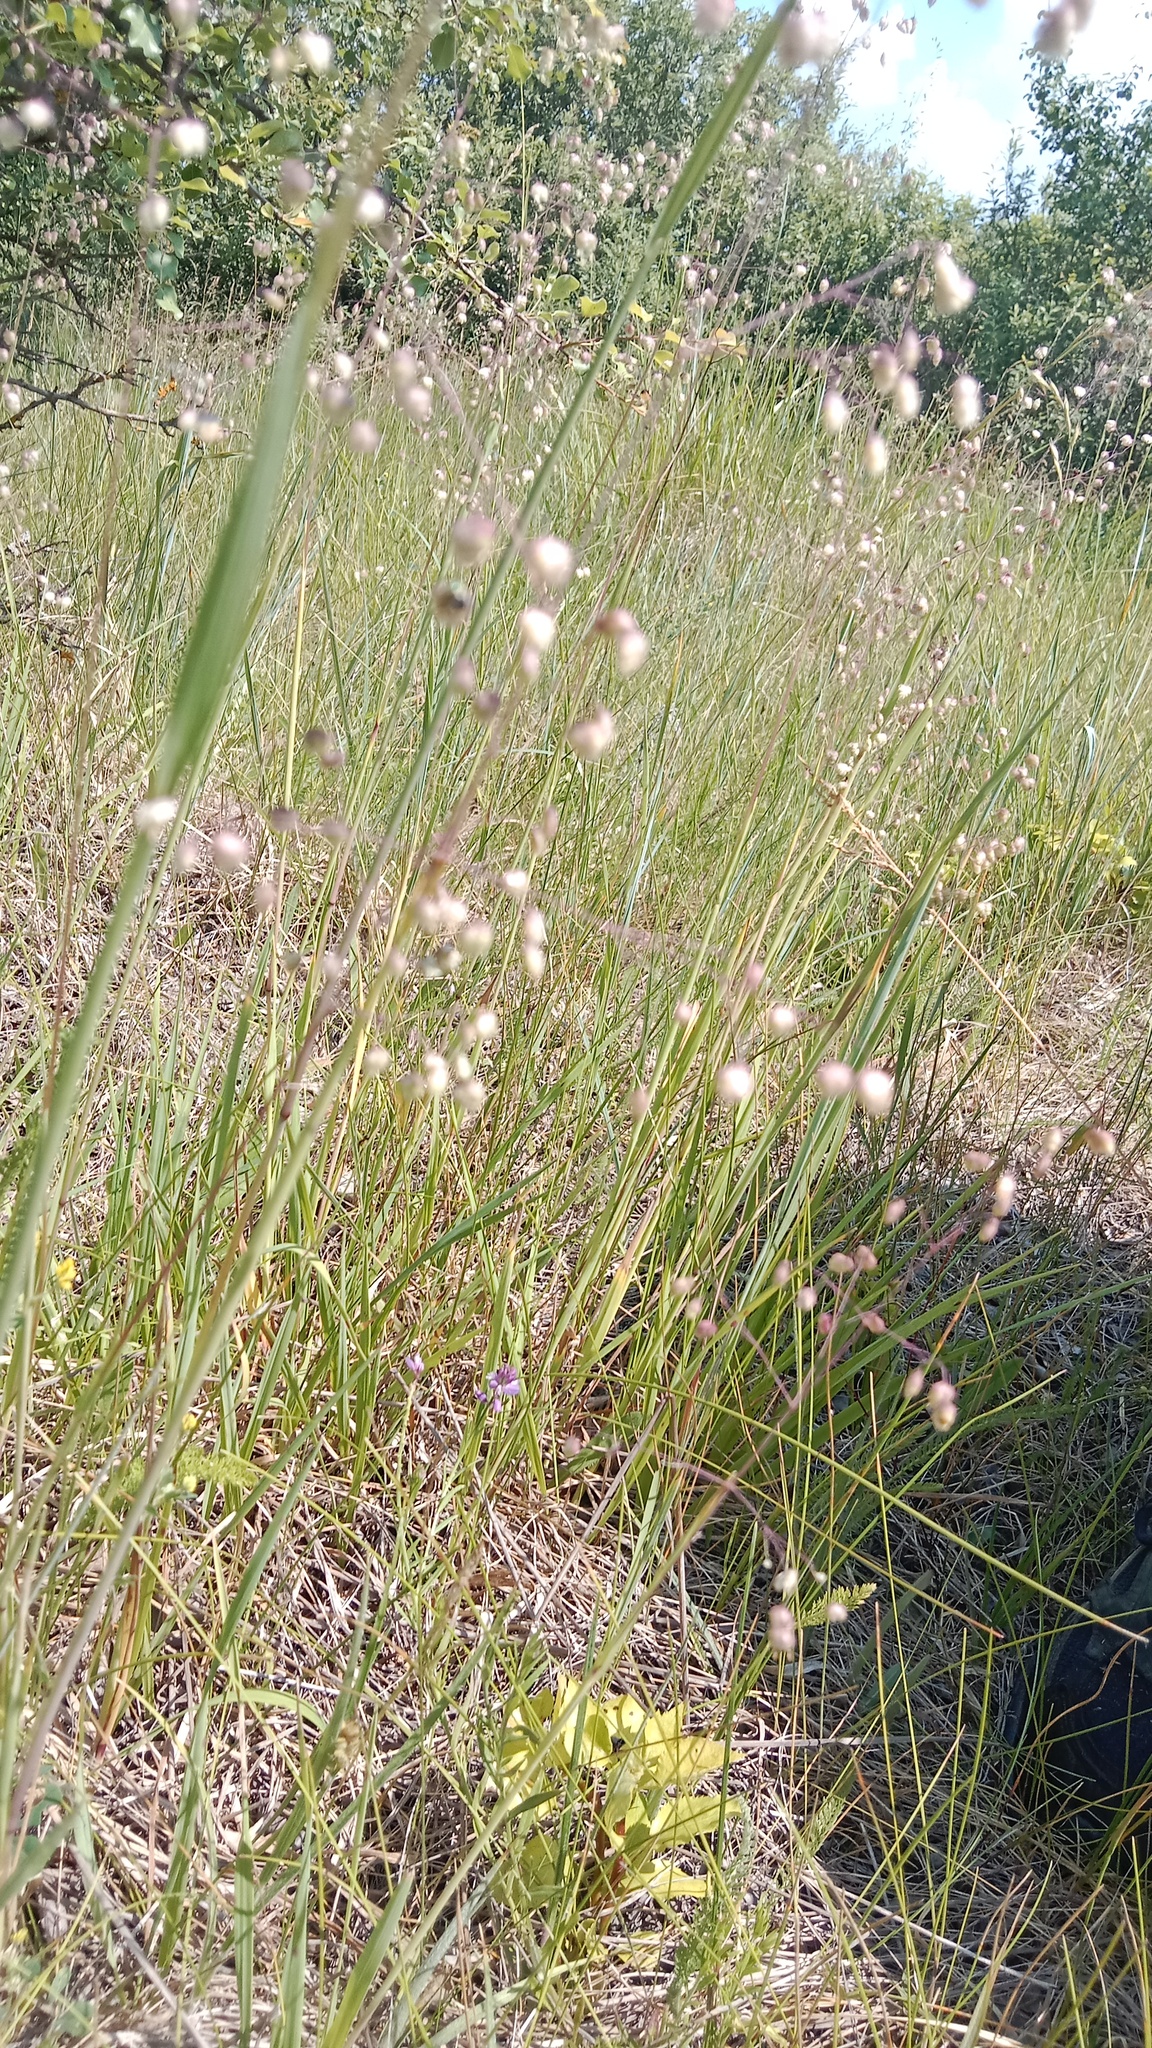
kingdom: Plantae
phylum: Tracheophyta
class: Liliopsida
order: Poales
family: Poaceae
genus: Briza
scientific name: Briza media
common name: Quaking grass
